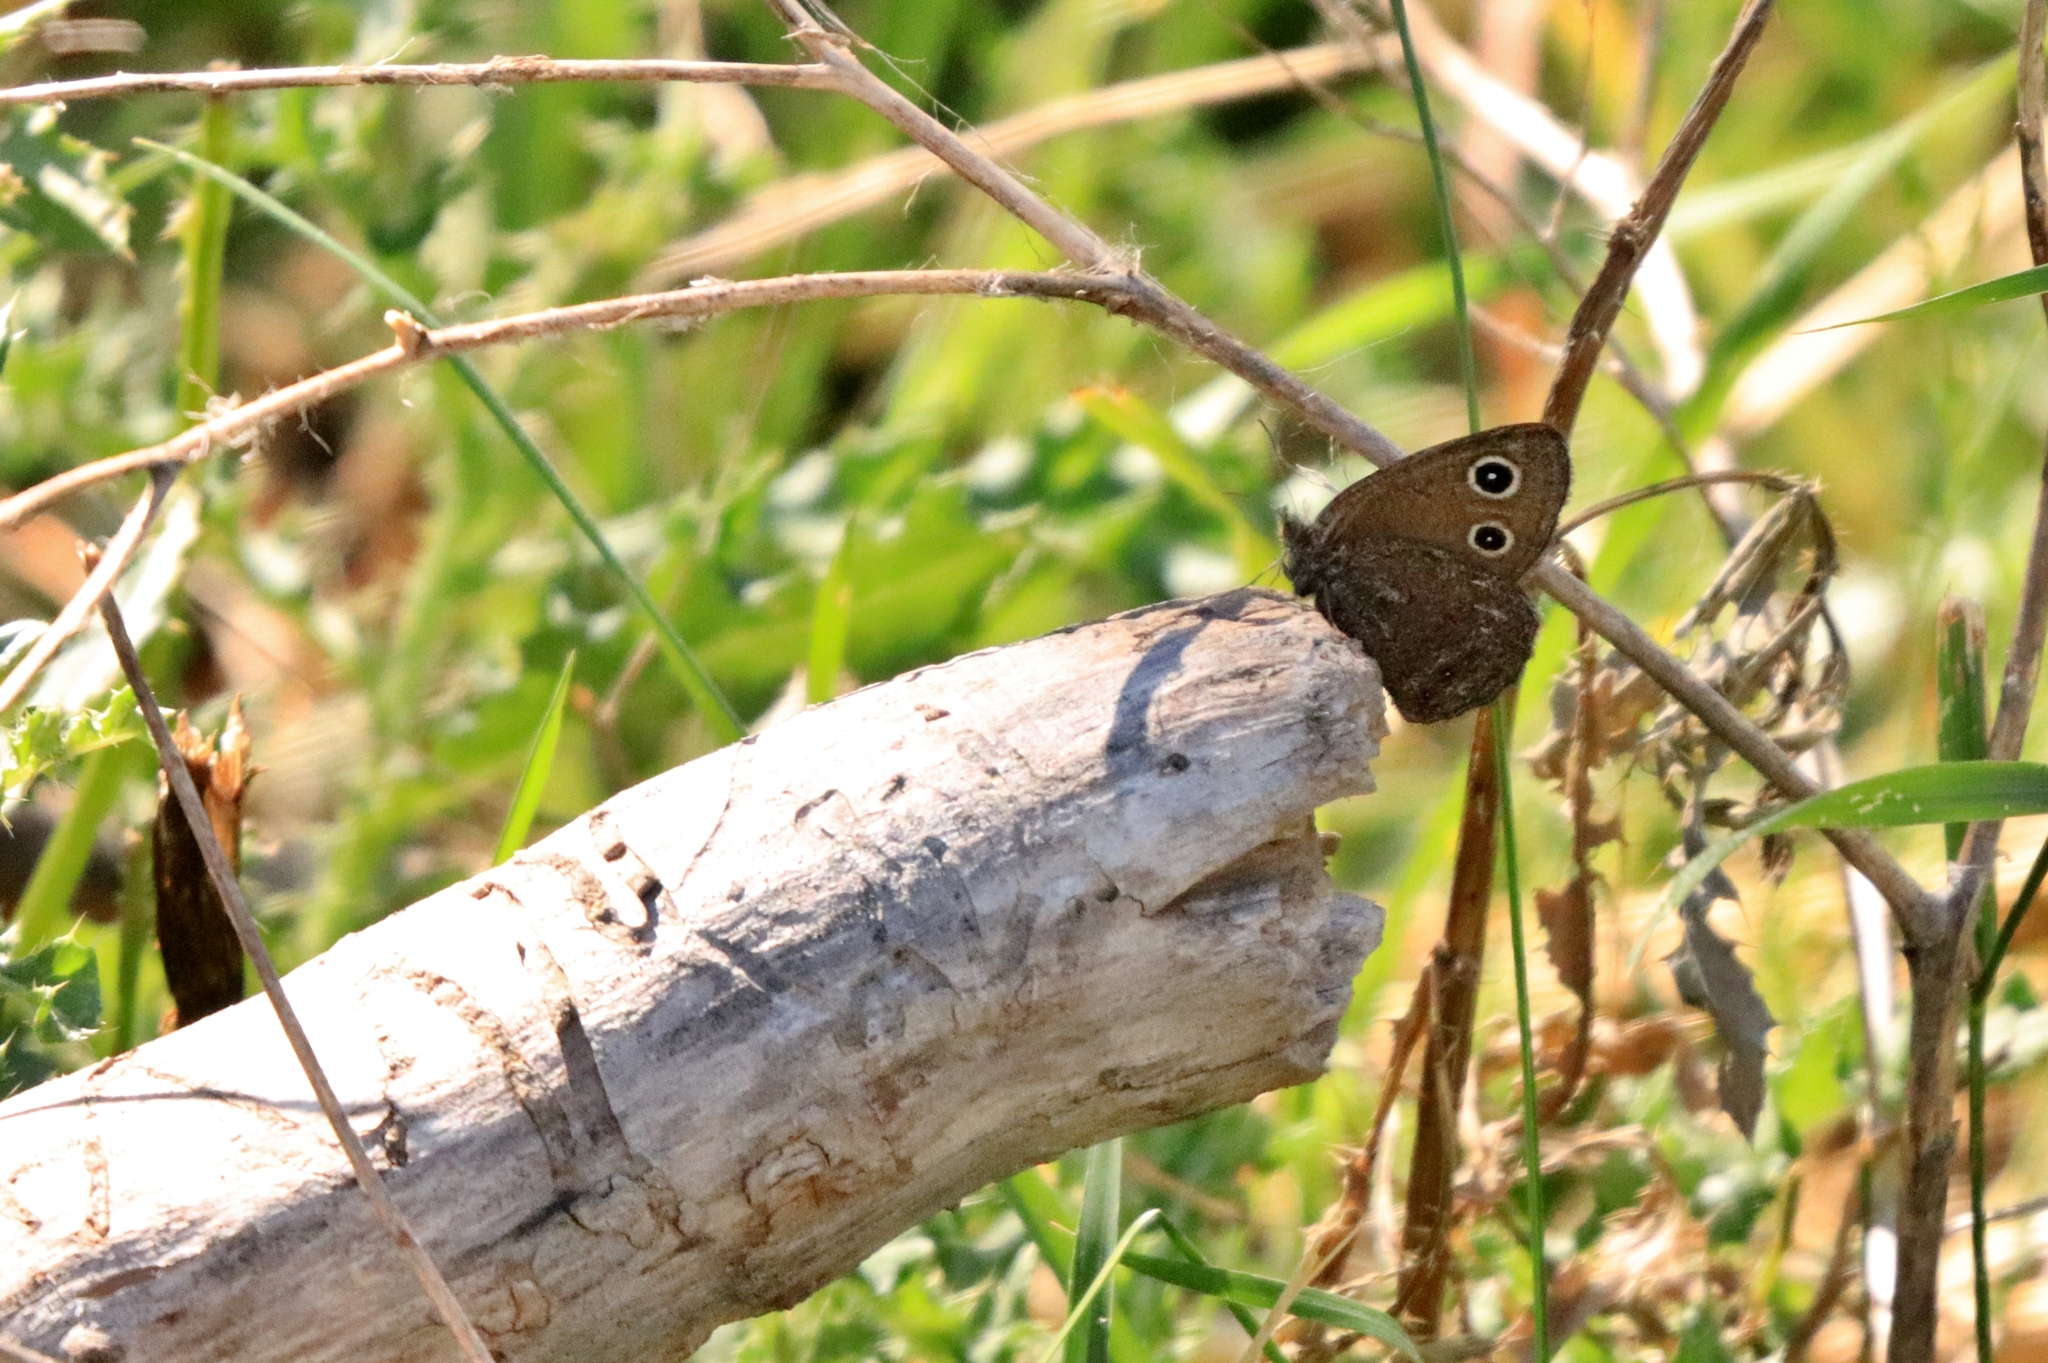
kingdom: Animalia
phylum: Arthropoda
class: Insecta
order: Lepidoptera
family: Nymphalidae
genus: Cercyonis
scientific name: Cercyonis oetus
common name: Small wood-nymph
